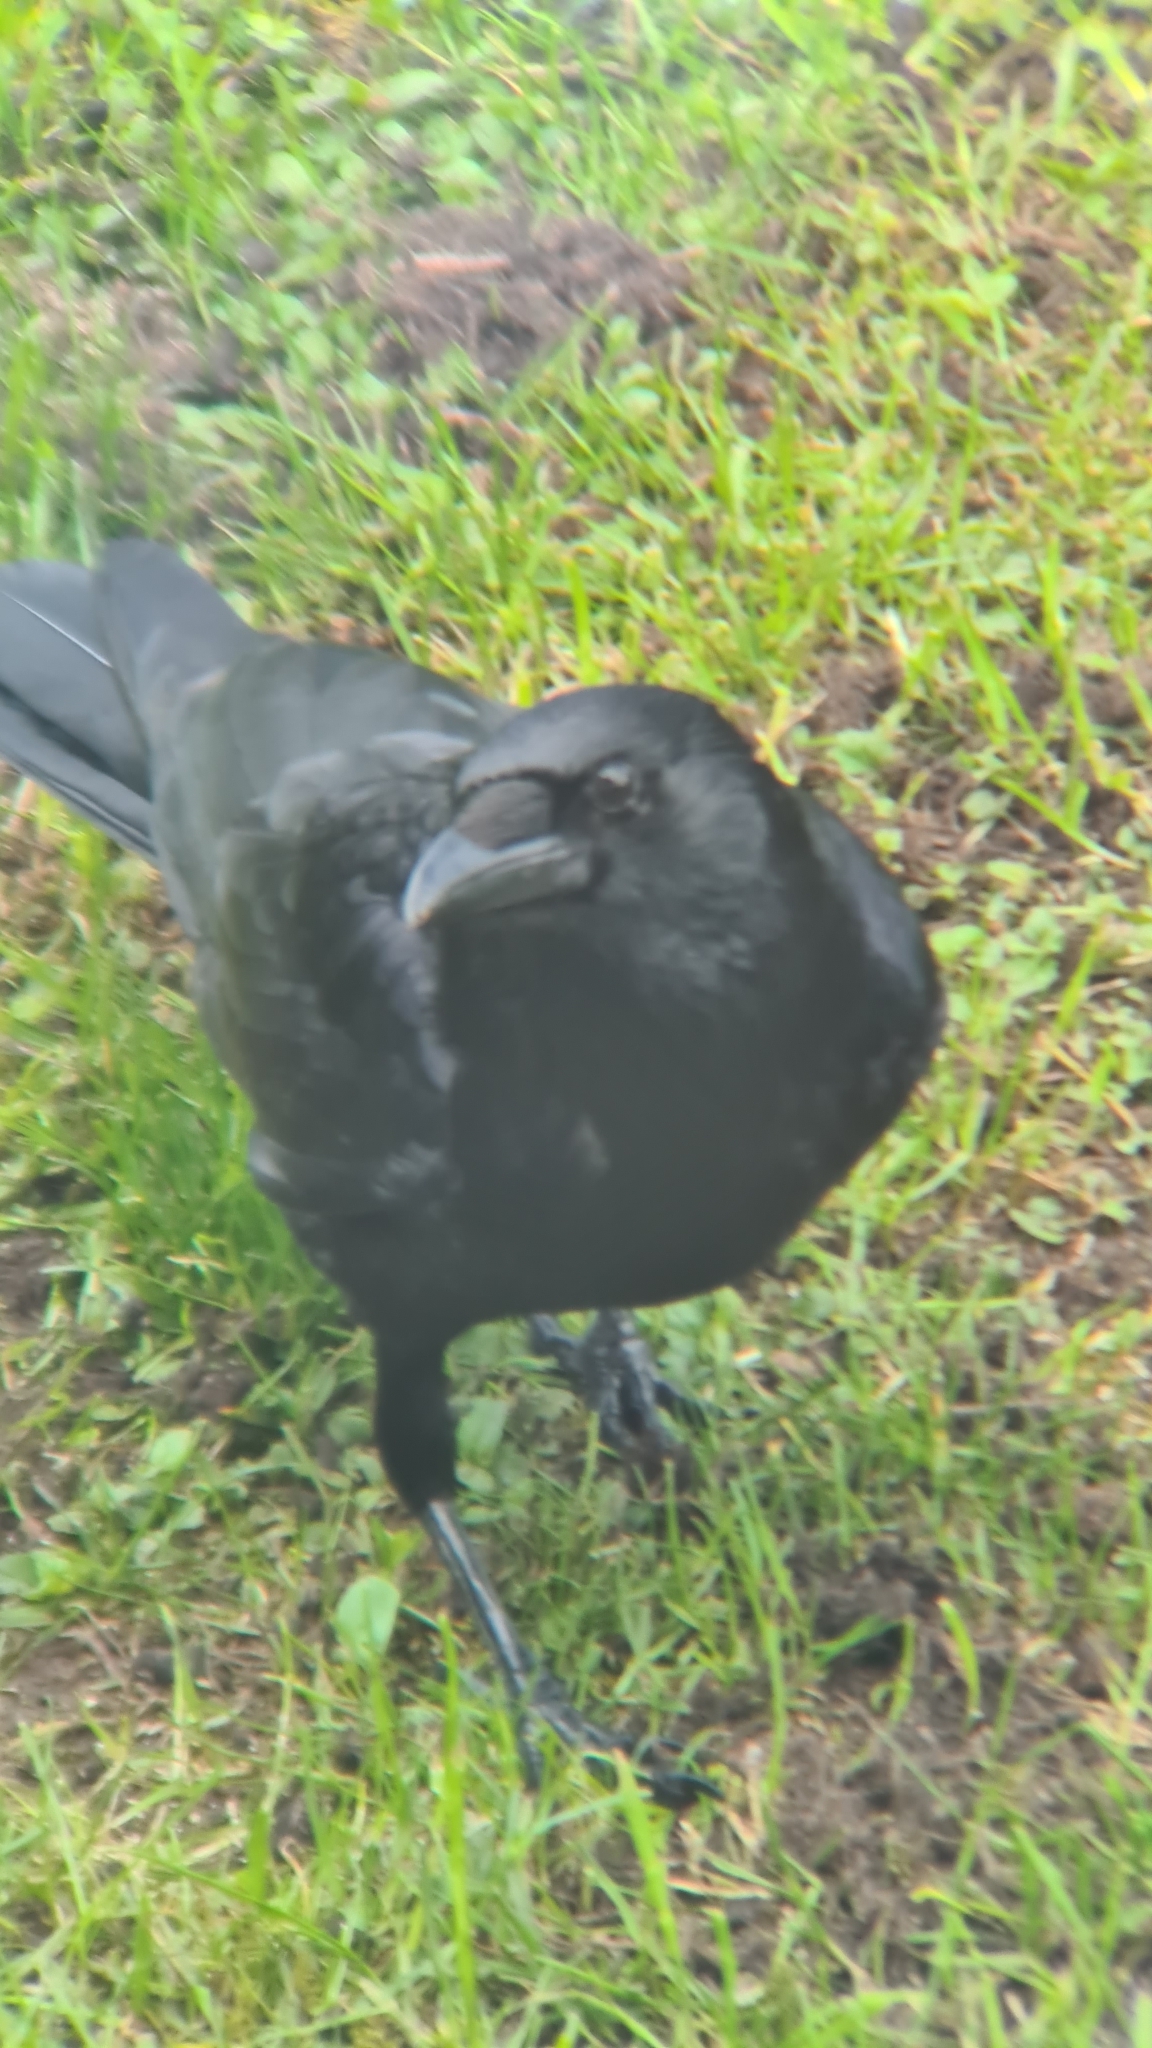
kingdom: Animalia
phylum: Chordata
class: Aves
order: Passeriformes
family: Corvidae
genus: Corvus
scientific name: Corvus corone
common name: Carrion crow
